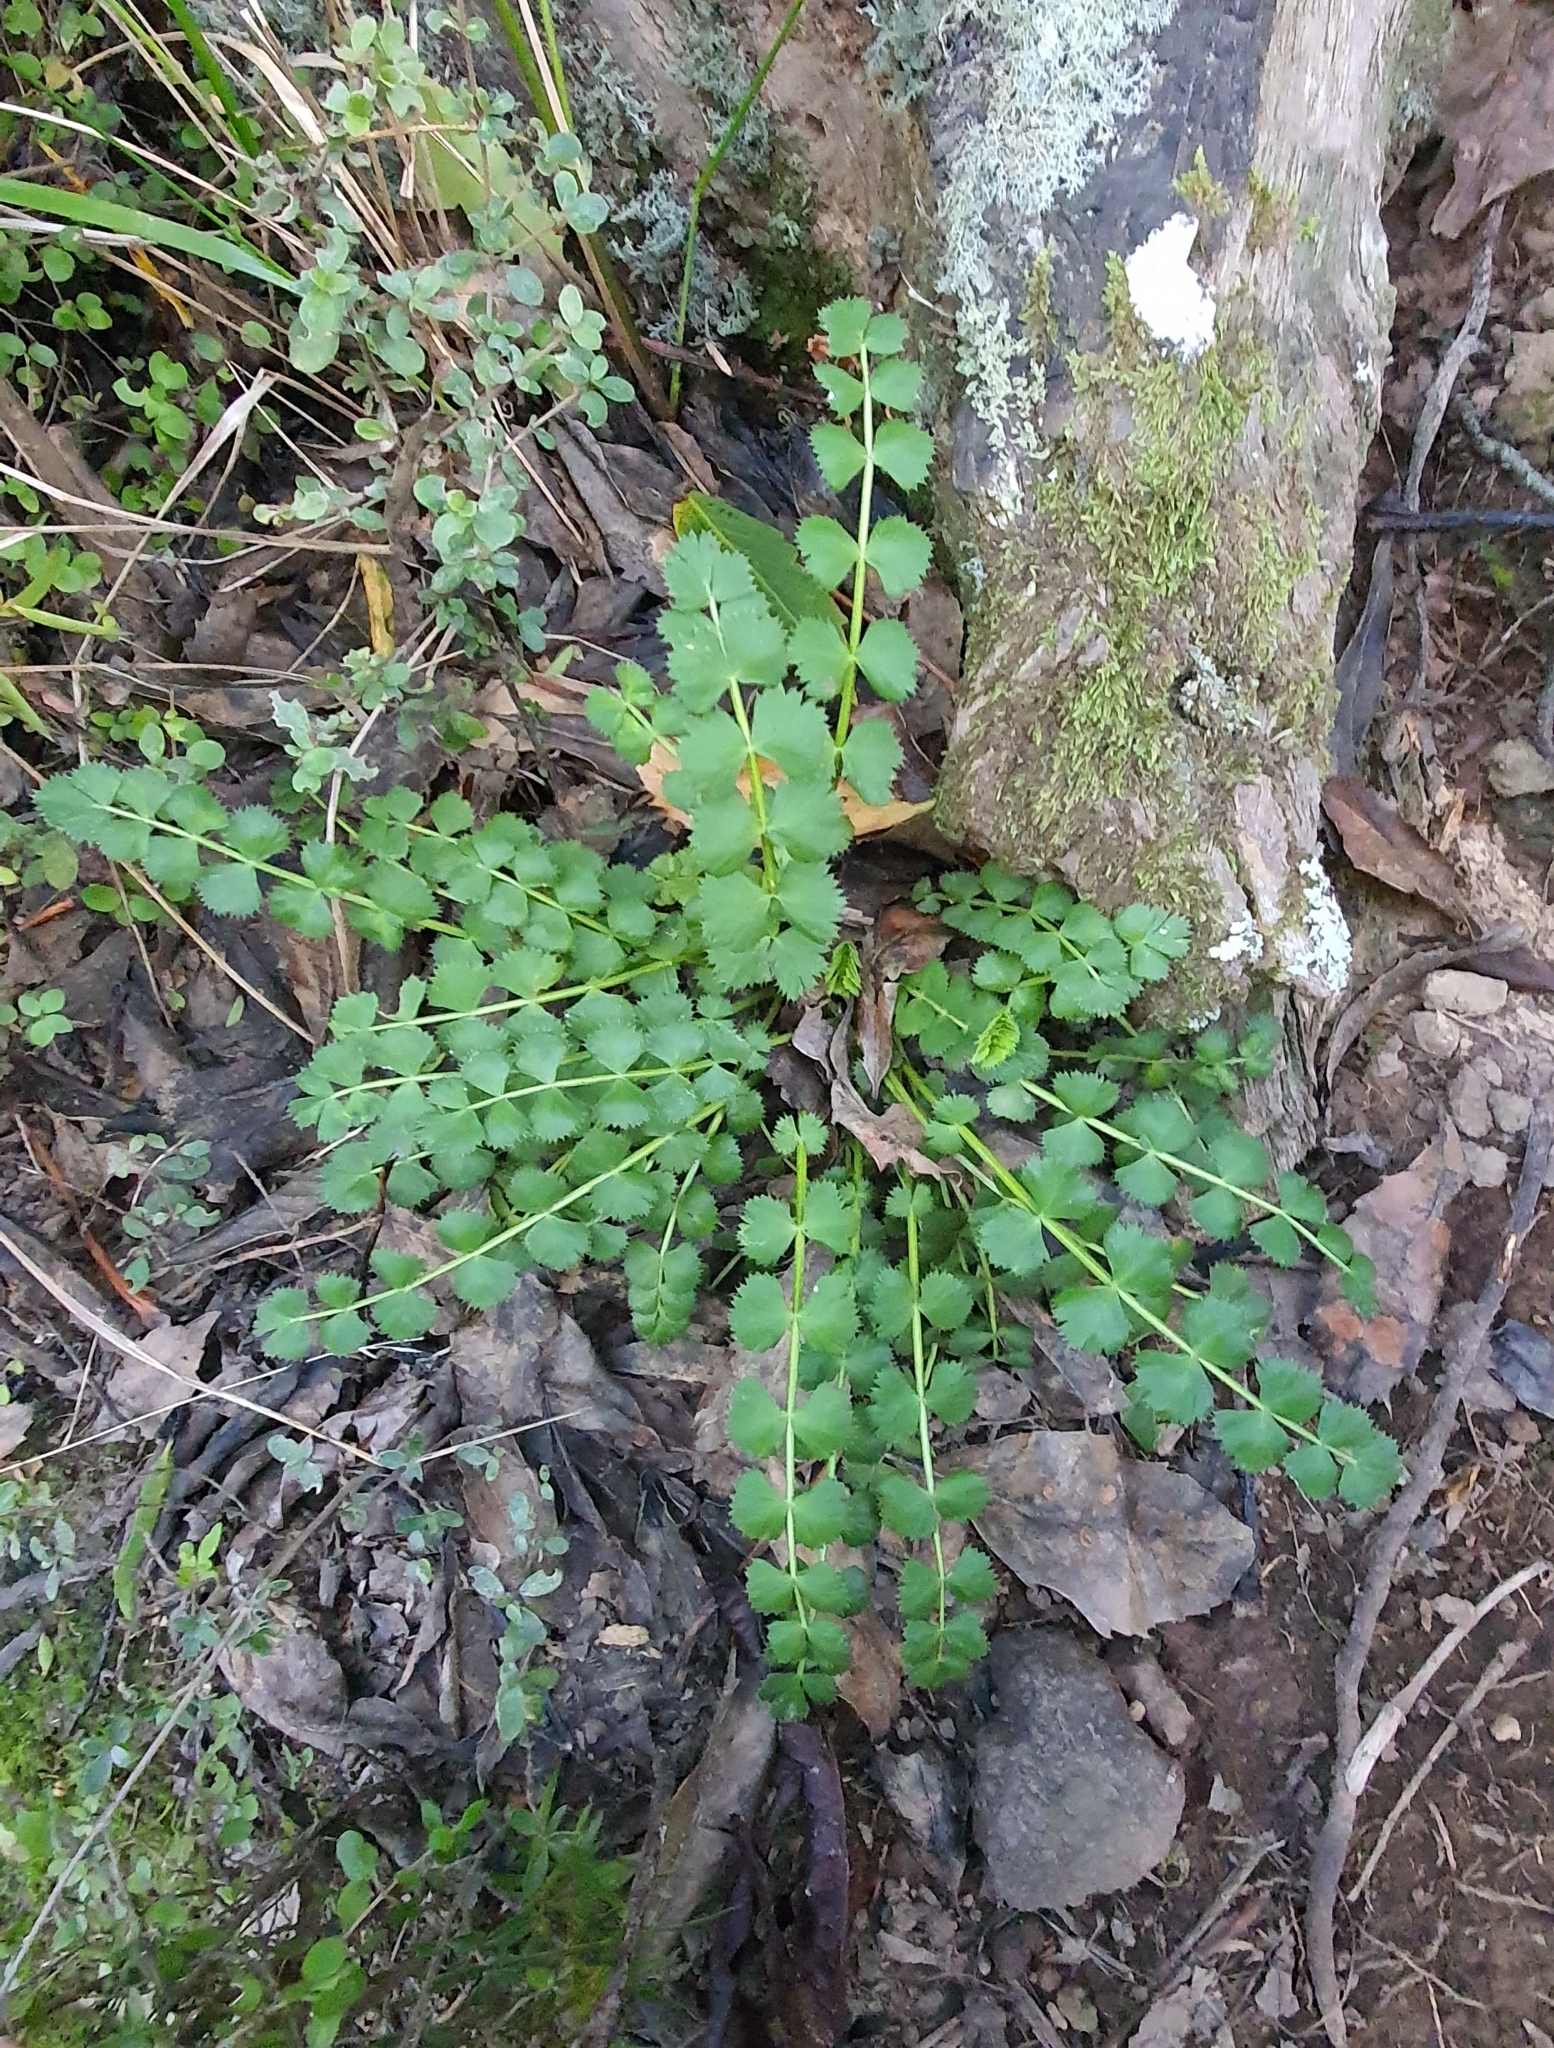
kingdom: Plantae
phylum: Tracheophyta
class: Magnoliopsida
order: Apiales
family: Apiaceae
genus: Anisotome
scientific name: Anisotome aromatica
